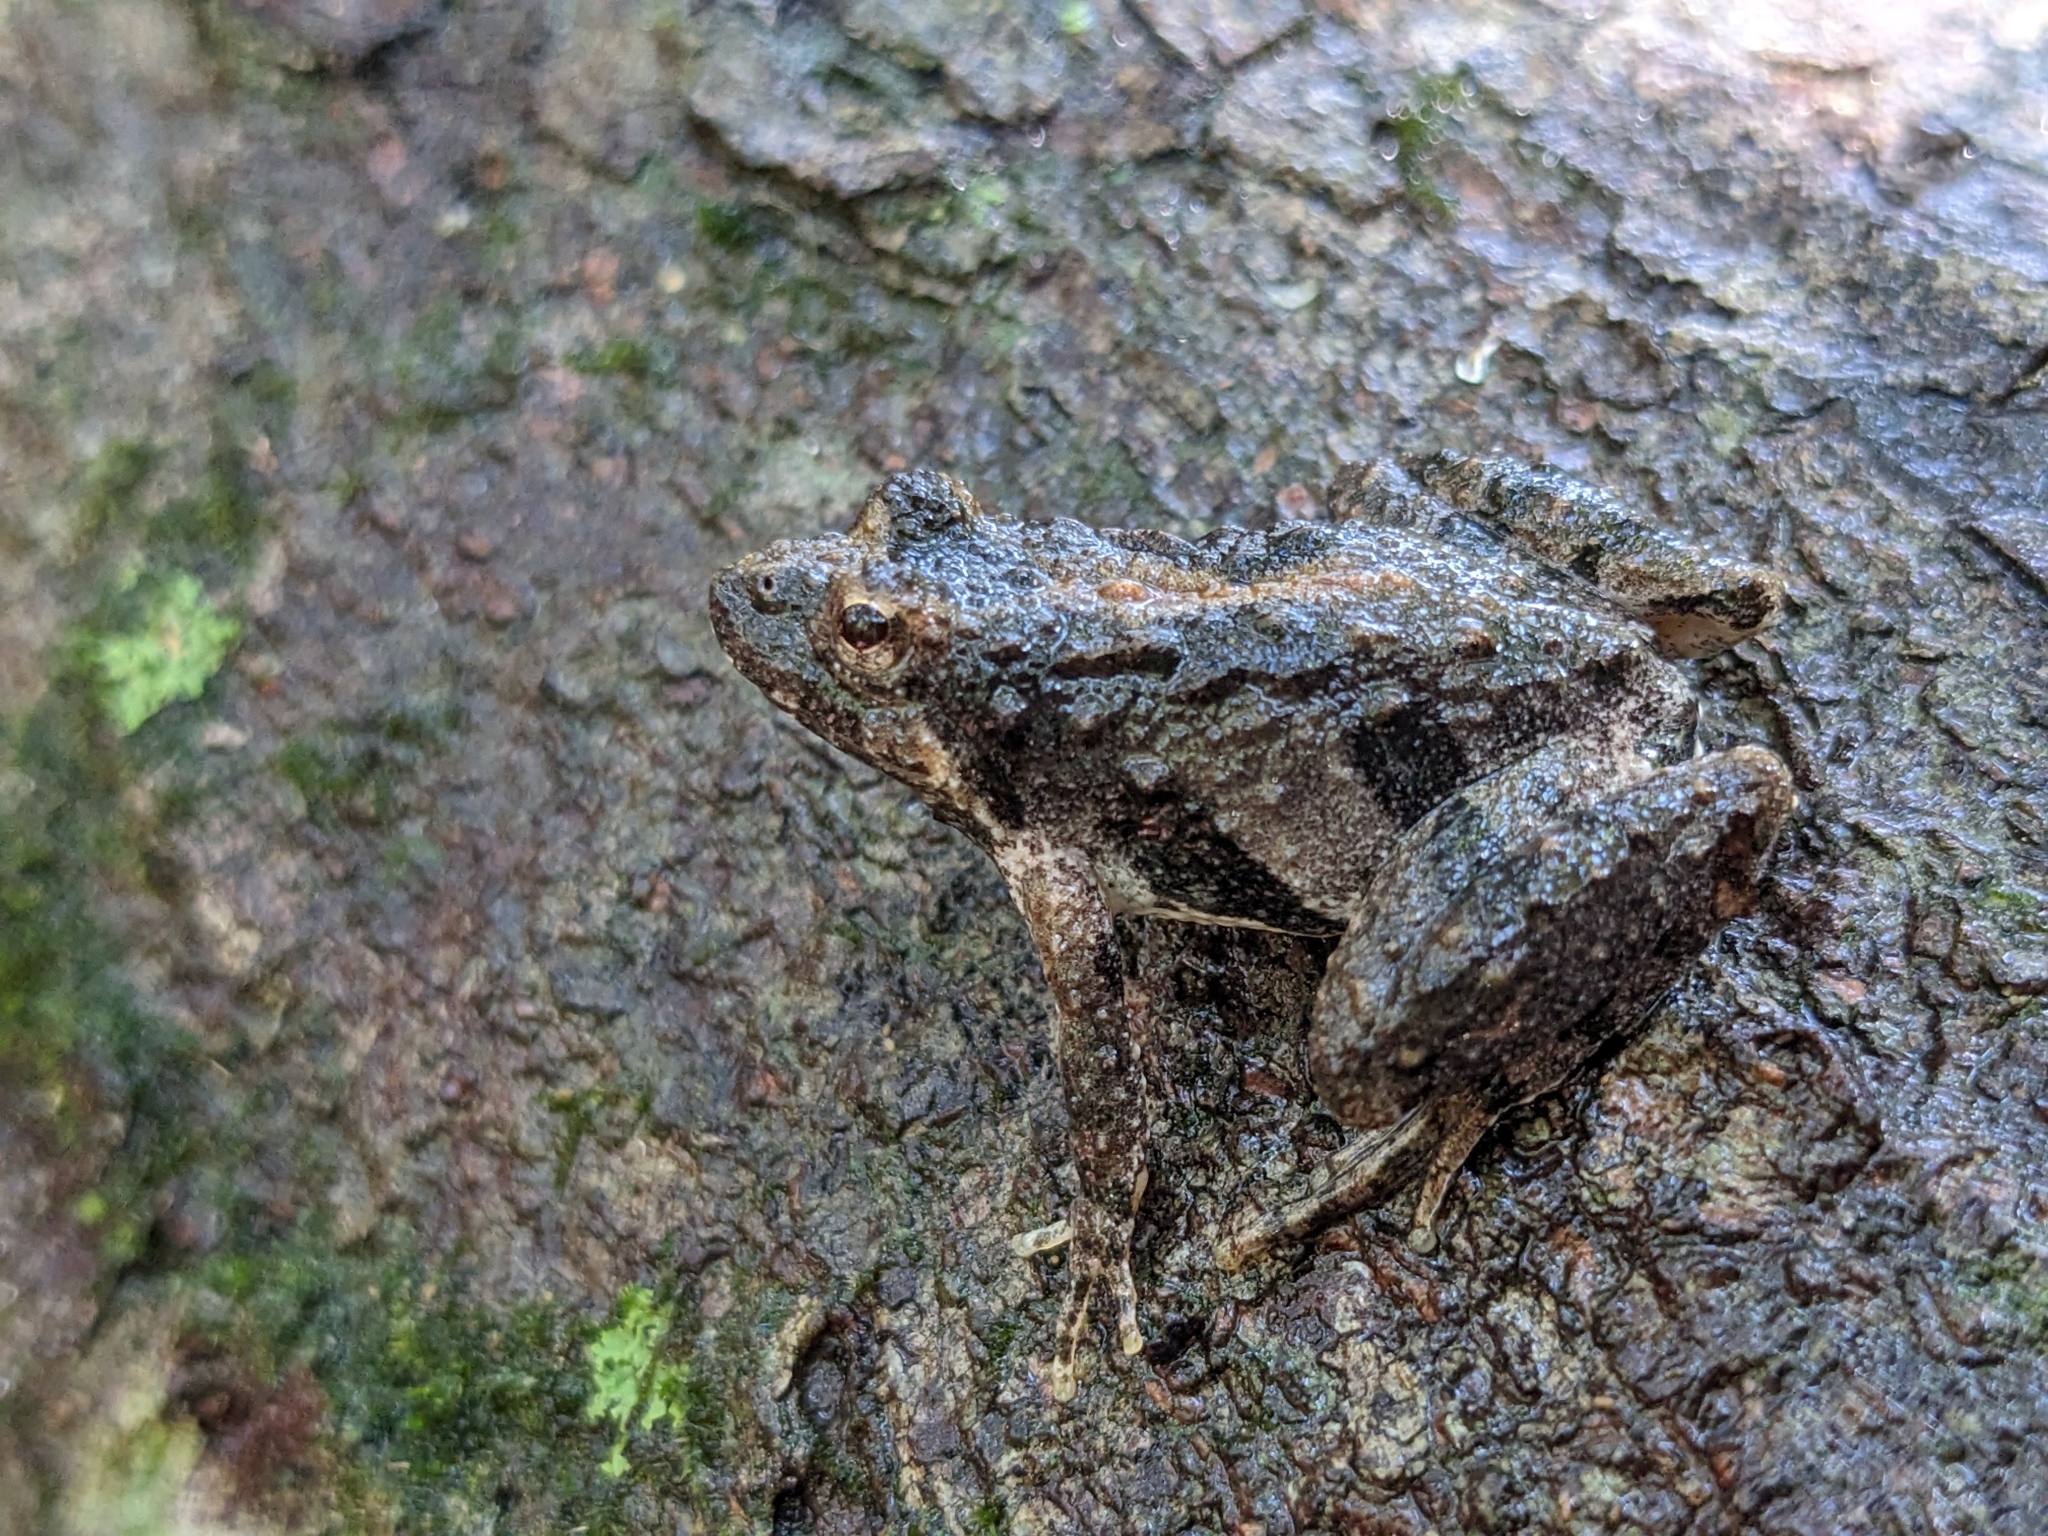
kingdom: Animalia
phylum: Chordata
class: Amphibia
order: Anura
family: Hylidae
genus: Acris
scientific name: Acris crepitans
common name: Northern cricket frog
